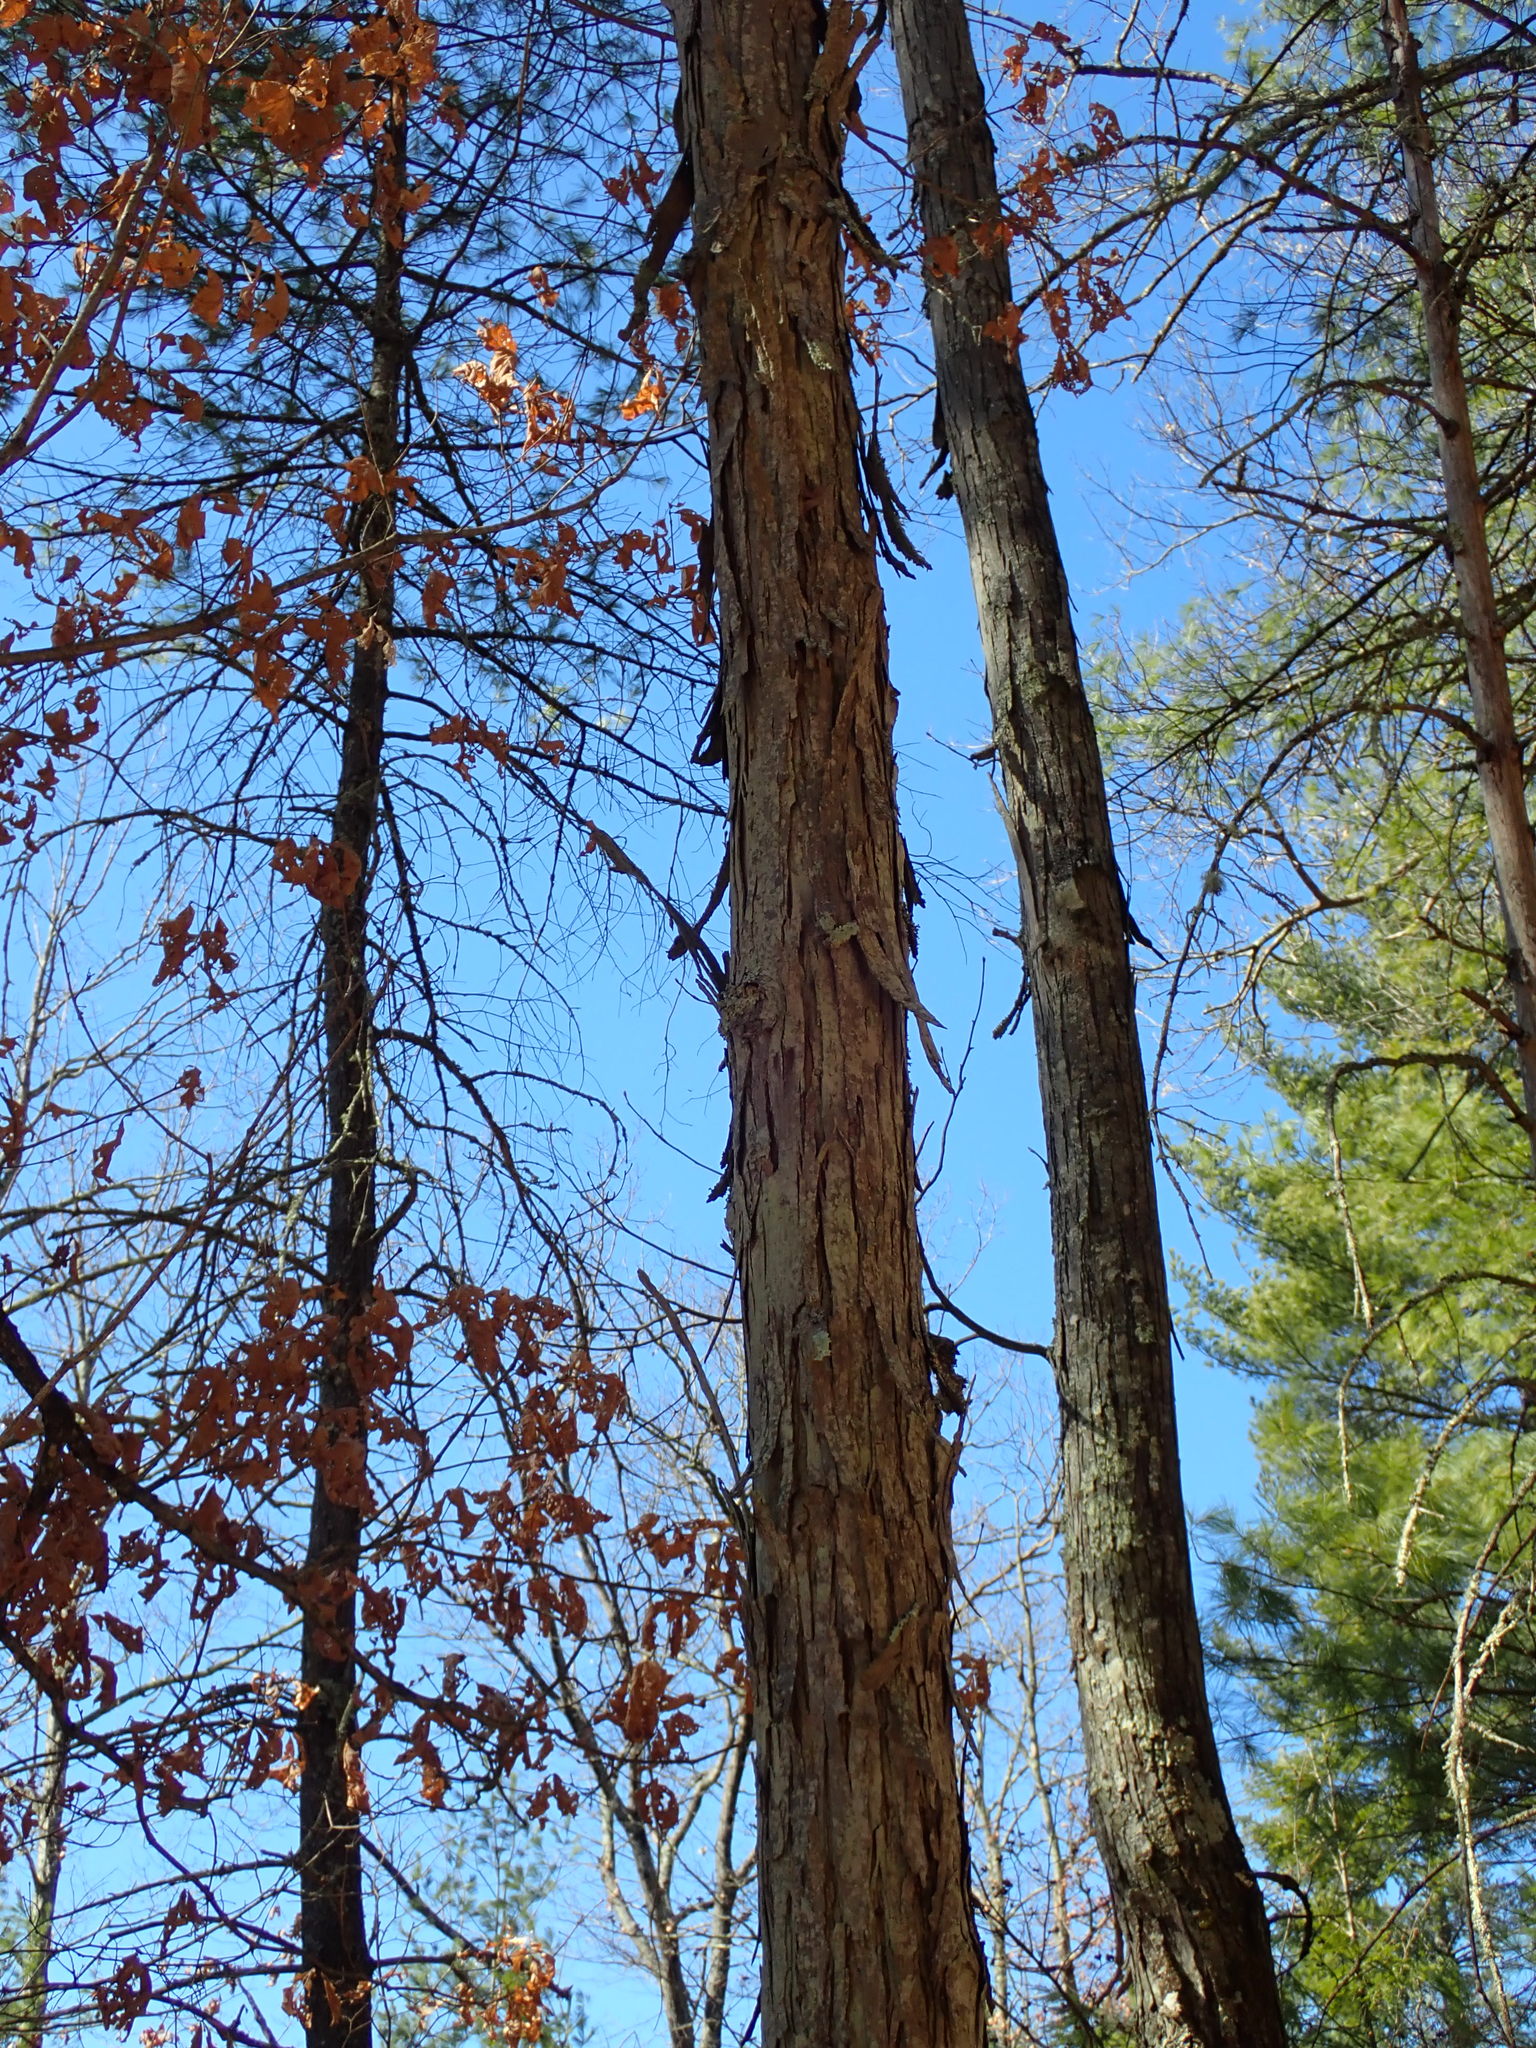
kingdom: Plantae
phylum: Tracheophyta
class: Magnoliopsida
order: Fagales
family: Juglandaceae
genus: Carya
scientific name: Carya ovata
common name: Shagbark hickory
